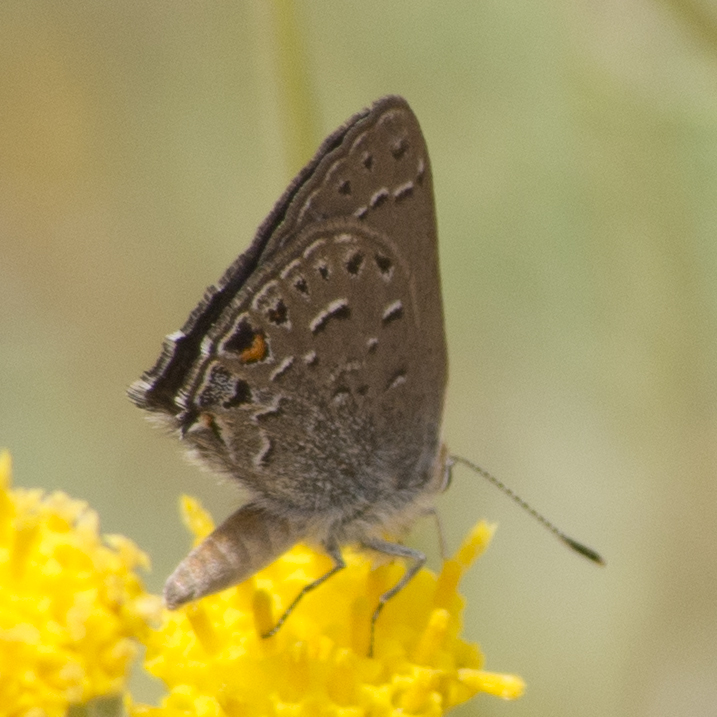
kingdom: Animalia
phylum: Arthropoda
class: Insecta
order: Lepidoptera
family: Lycaenidae
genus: Satyrium
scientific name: Satyrium behrii
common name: Behr's hairstreak
